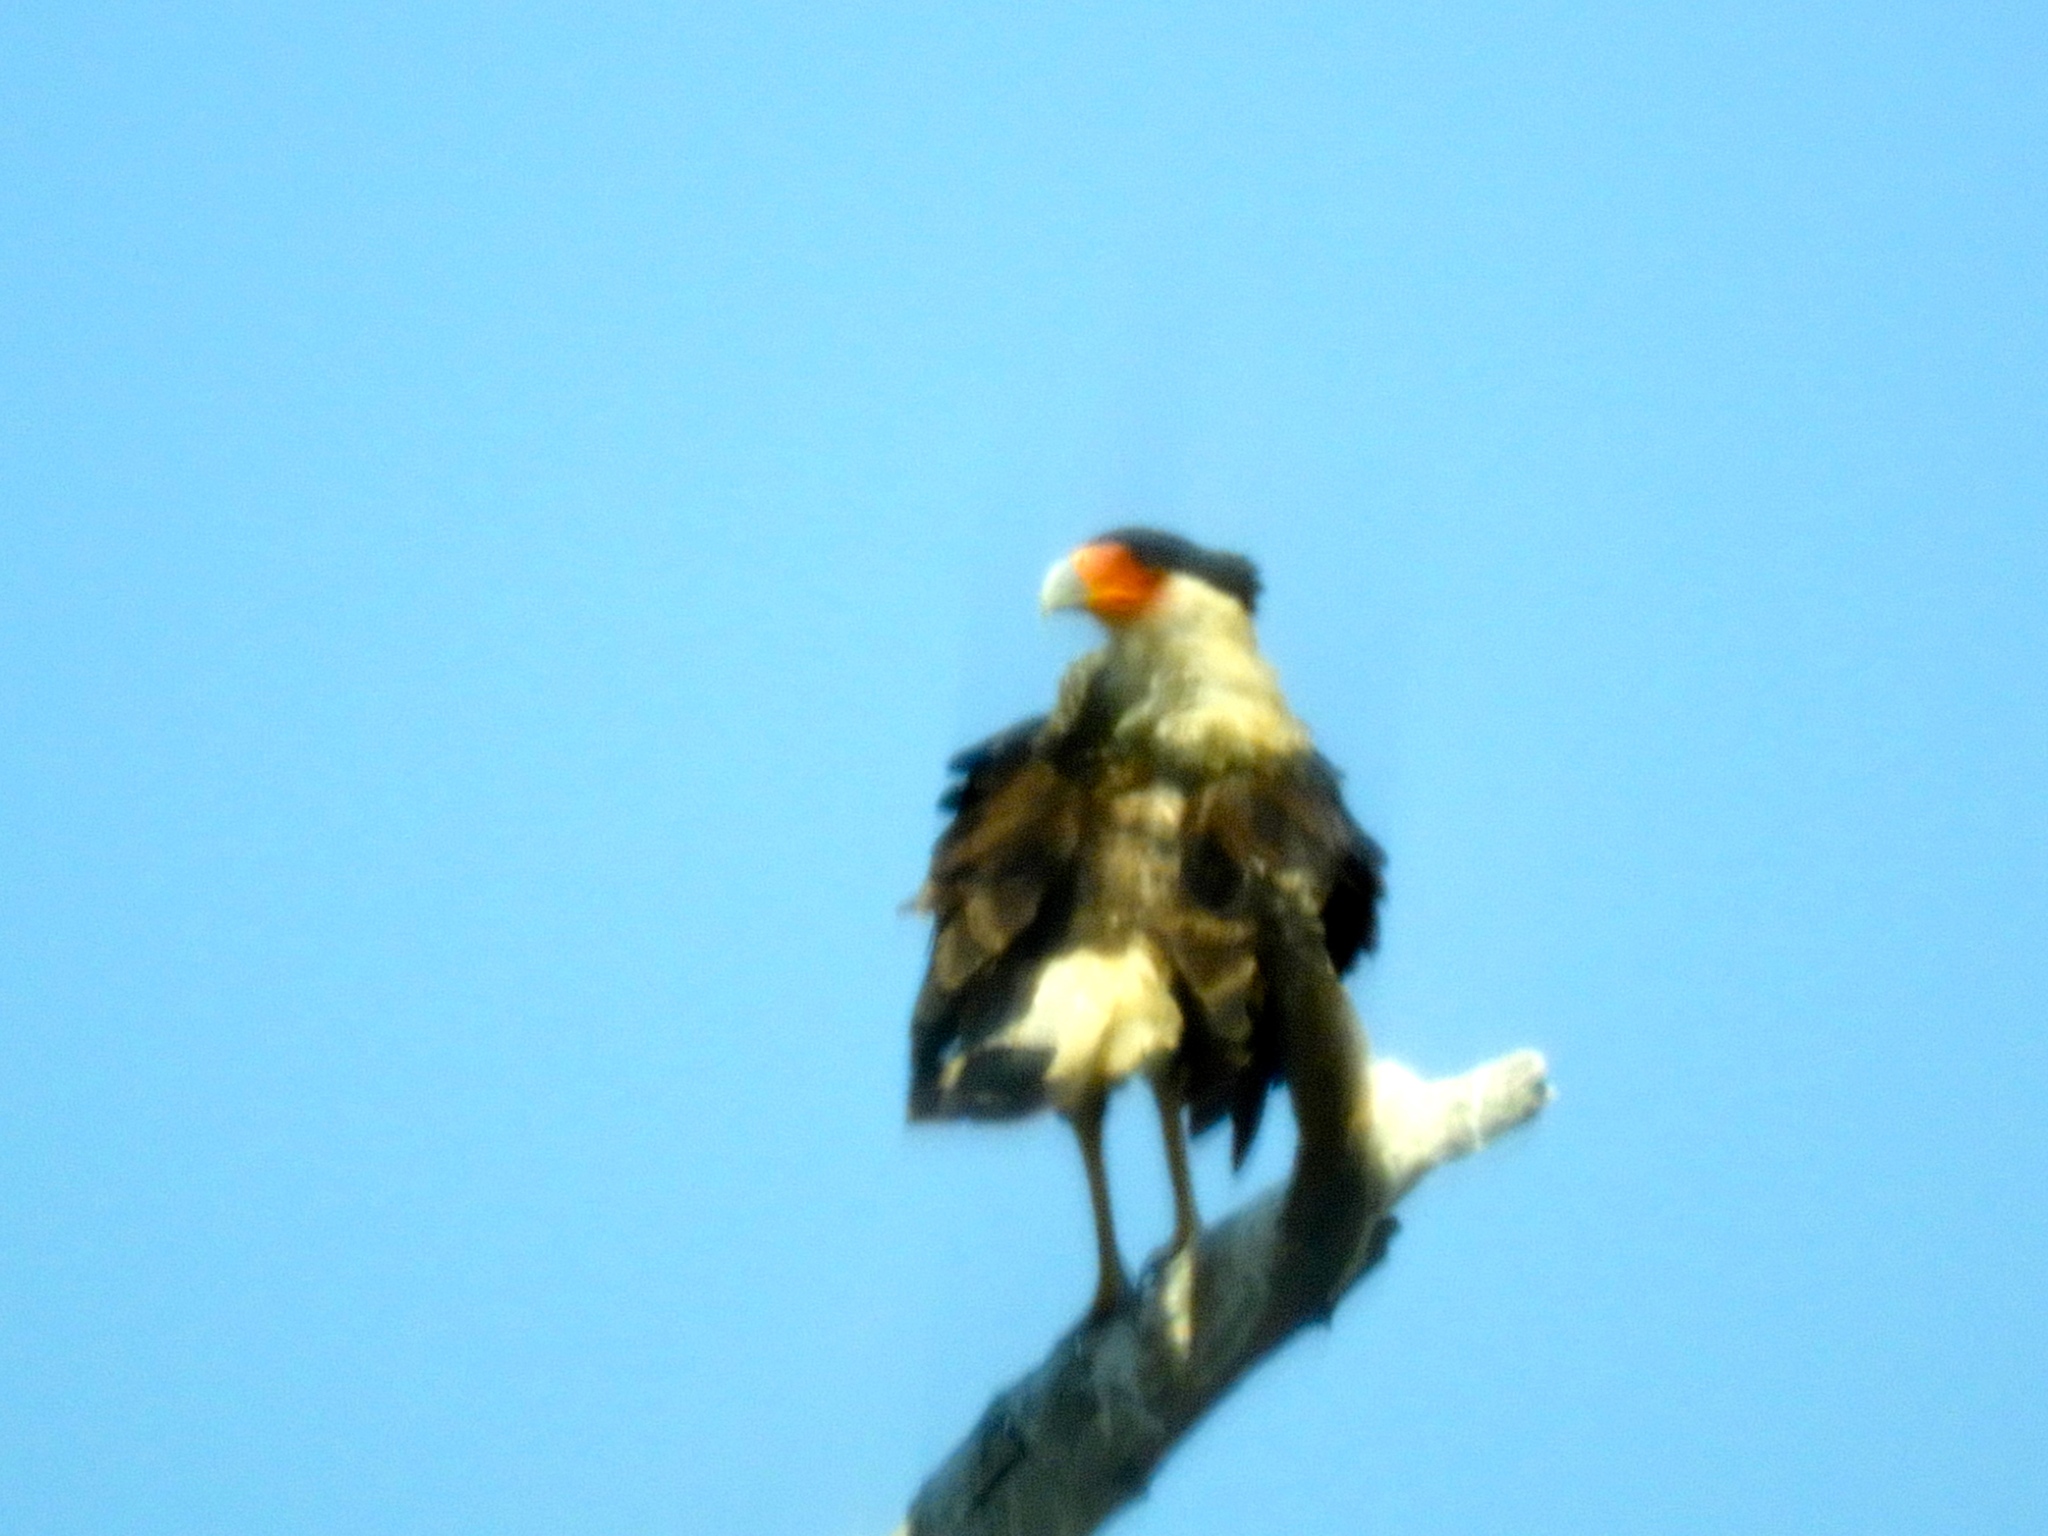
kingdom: Animalia
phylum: Chordata
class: Aves
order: Falconiformes
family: Falconidae
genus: Caracara
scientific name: Caracara plancus
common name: Southern caracara
